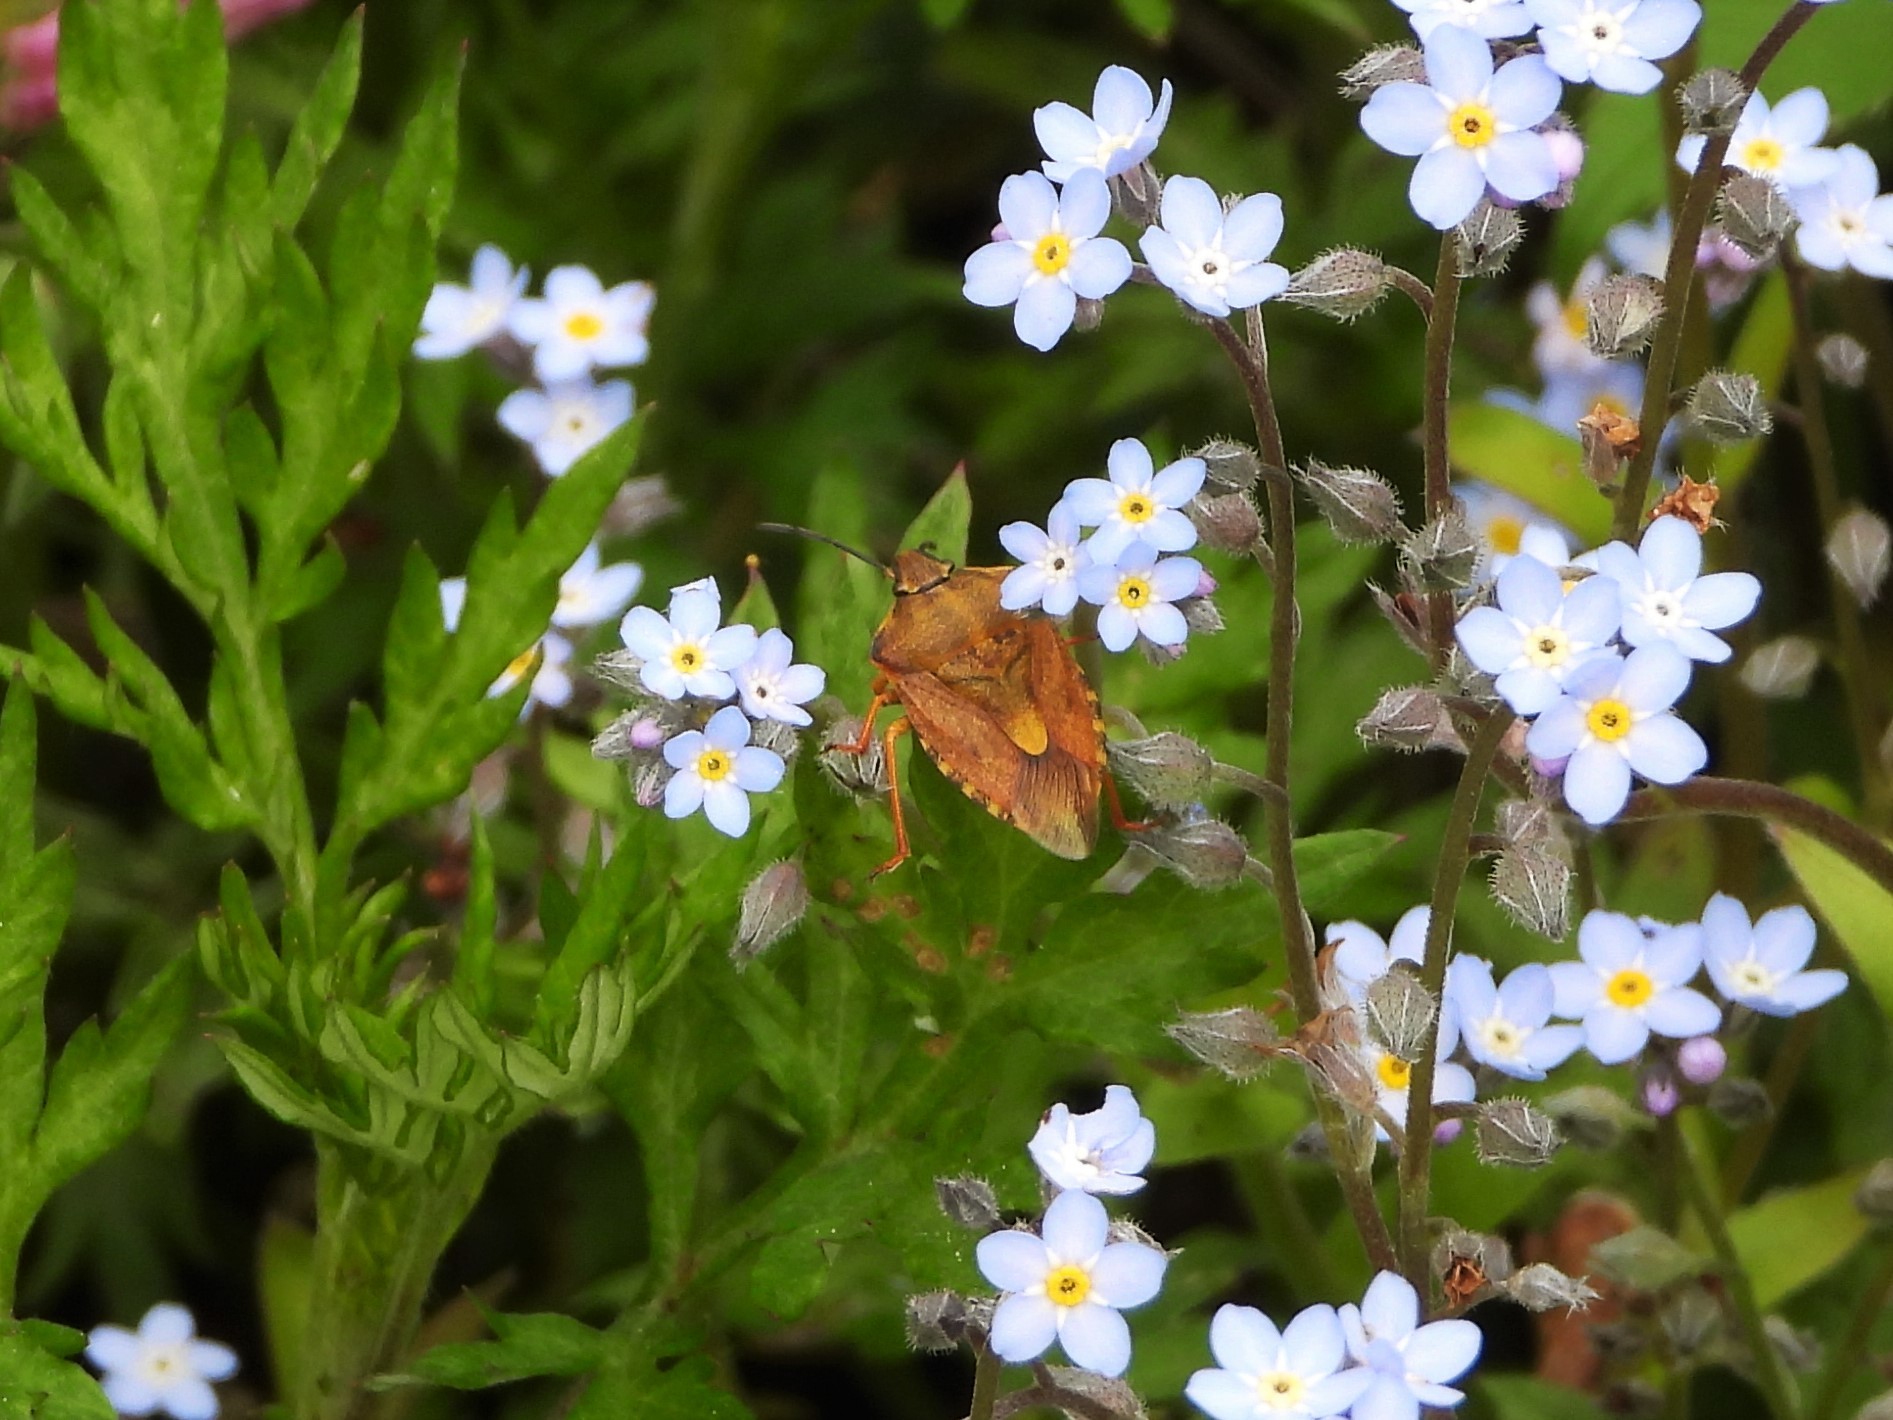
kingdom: Animalia
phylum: Arthropoda
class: Insecta
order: Hemiptera
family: Pentatomidae
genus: Carpocoris
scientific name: Carpocoris purpureipennis
